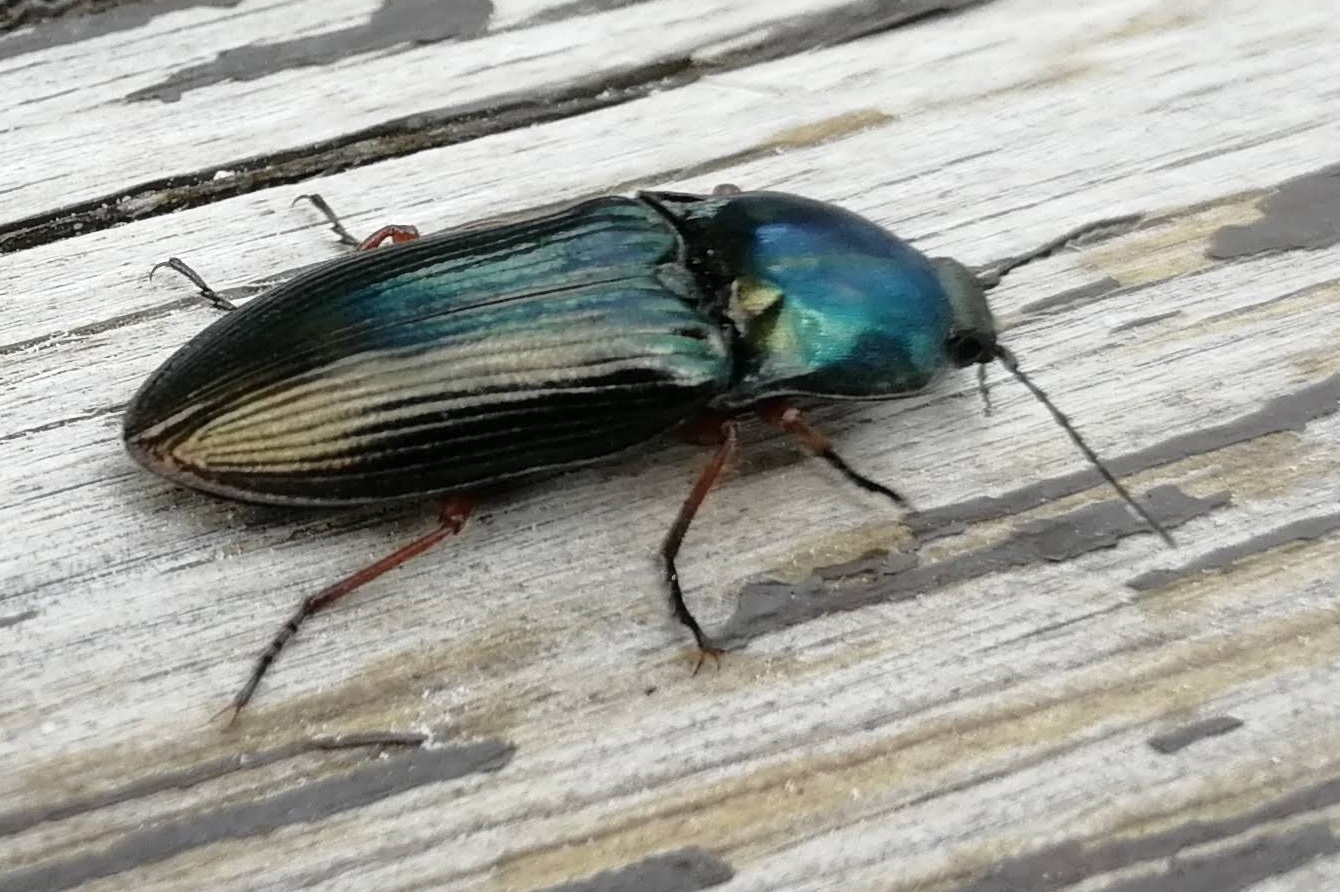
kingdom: Animalia
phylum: Arthropoda
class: Insecta
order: Coleoptera
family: Elateridae
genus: Selatosomus
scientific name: Selatosomus aeneus
